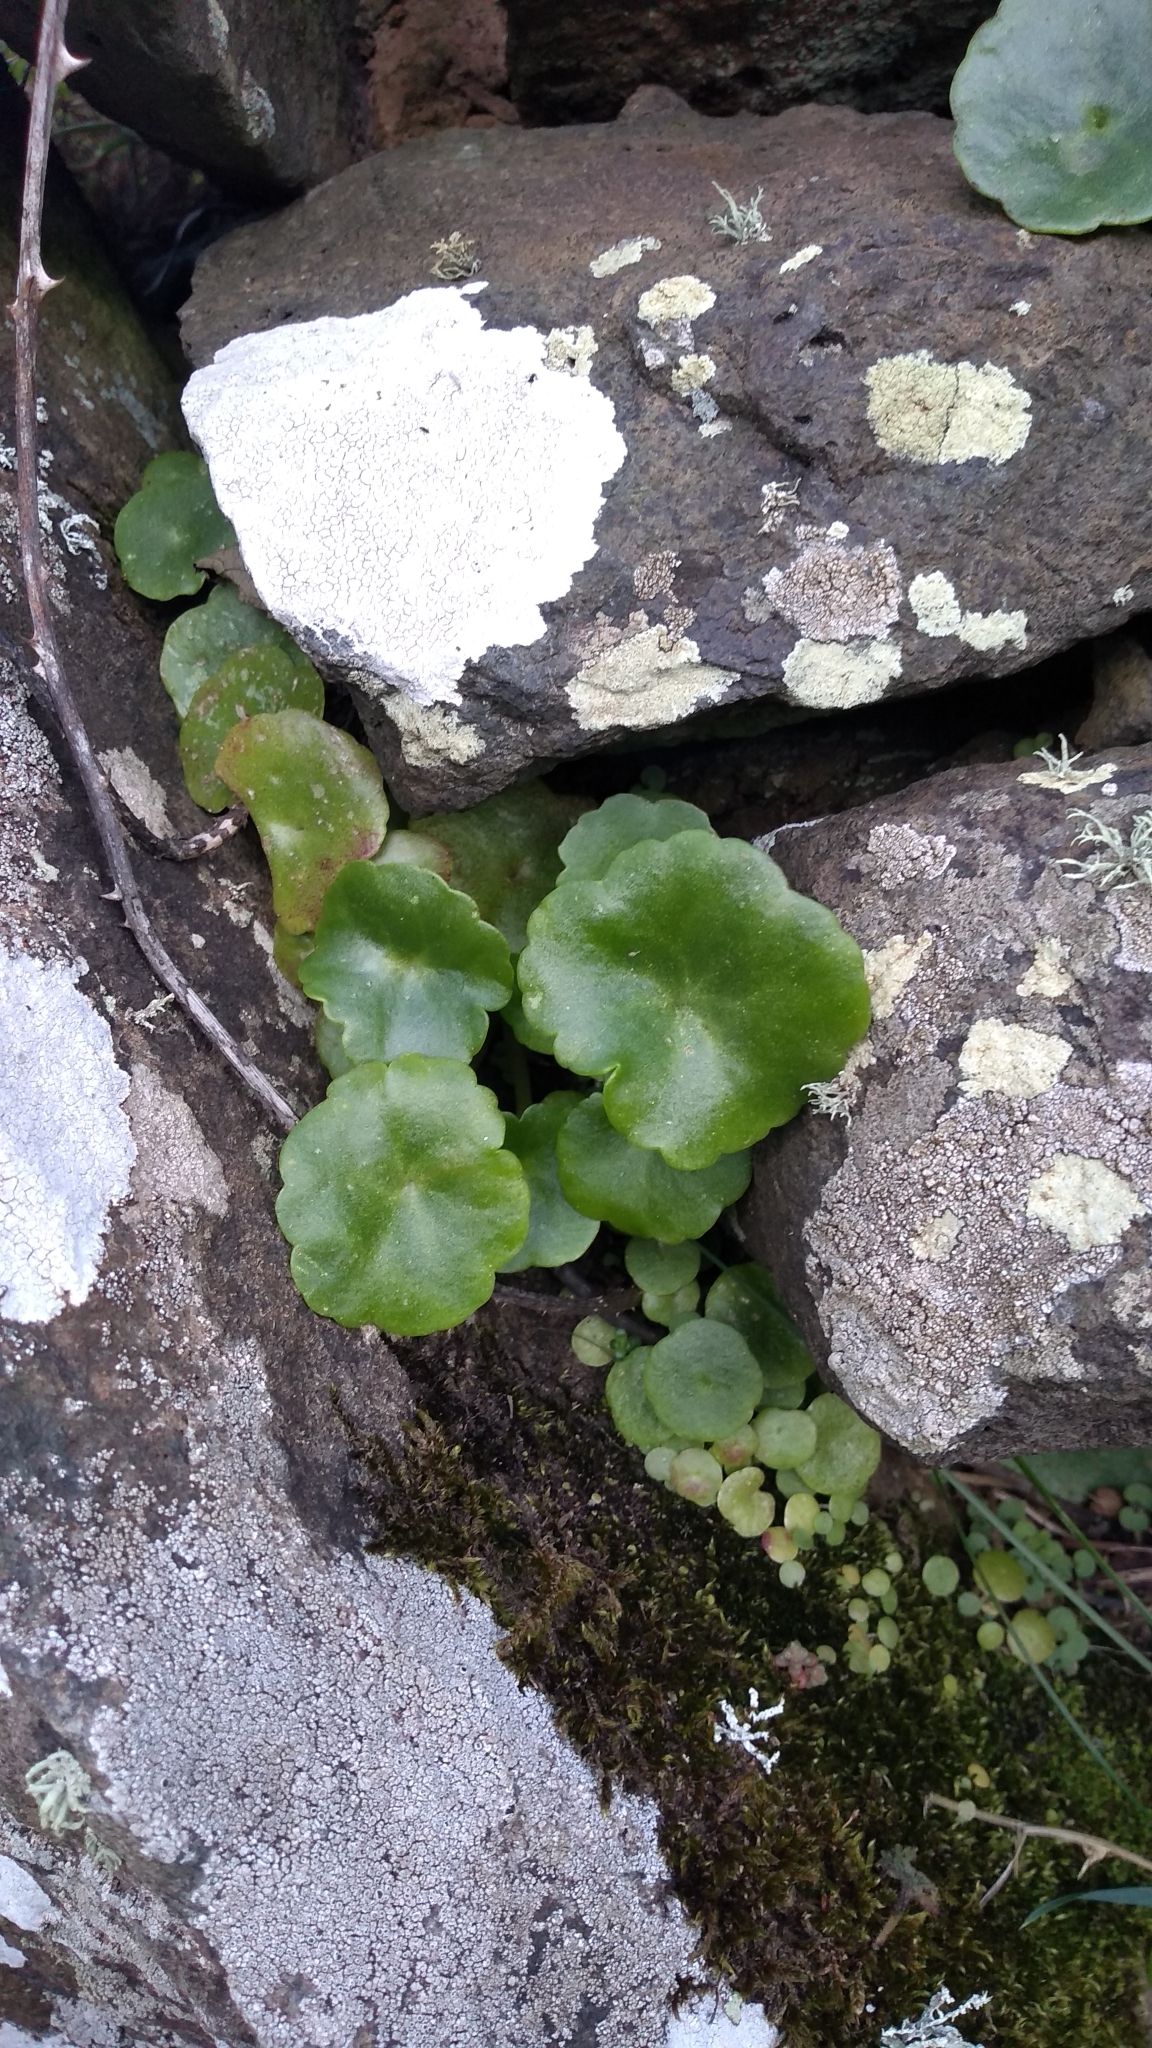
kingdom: Plantae
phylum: Tracheophyta
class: Magnoliopsida
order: Saxifragales
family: Crassulaceae
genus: Umbilicus
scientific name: Umbilicus rupestris
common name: Navelwort
